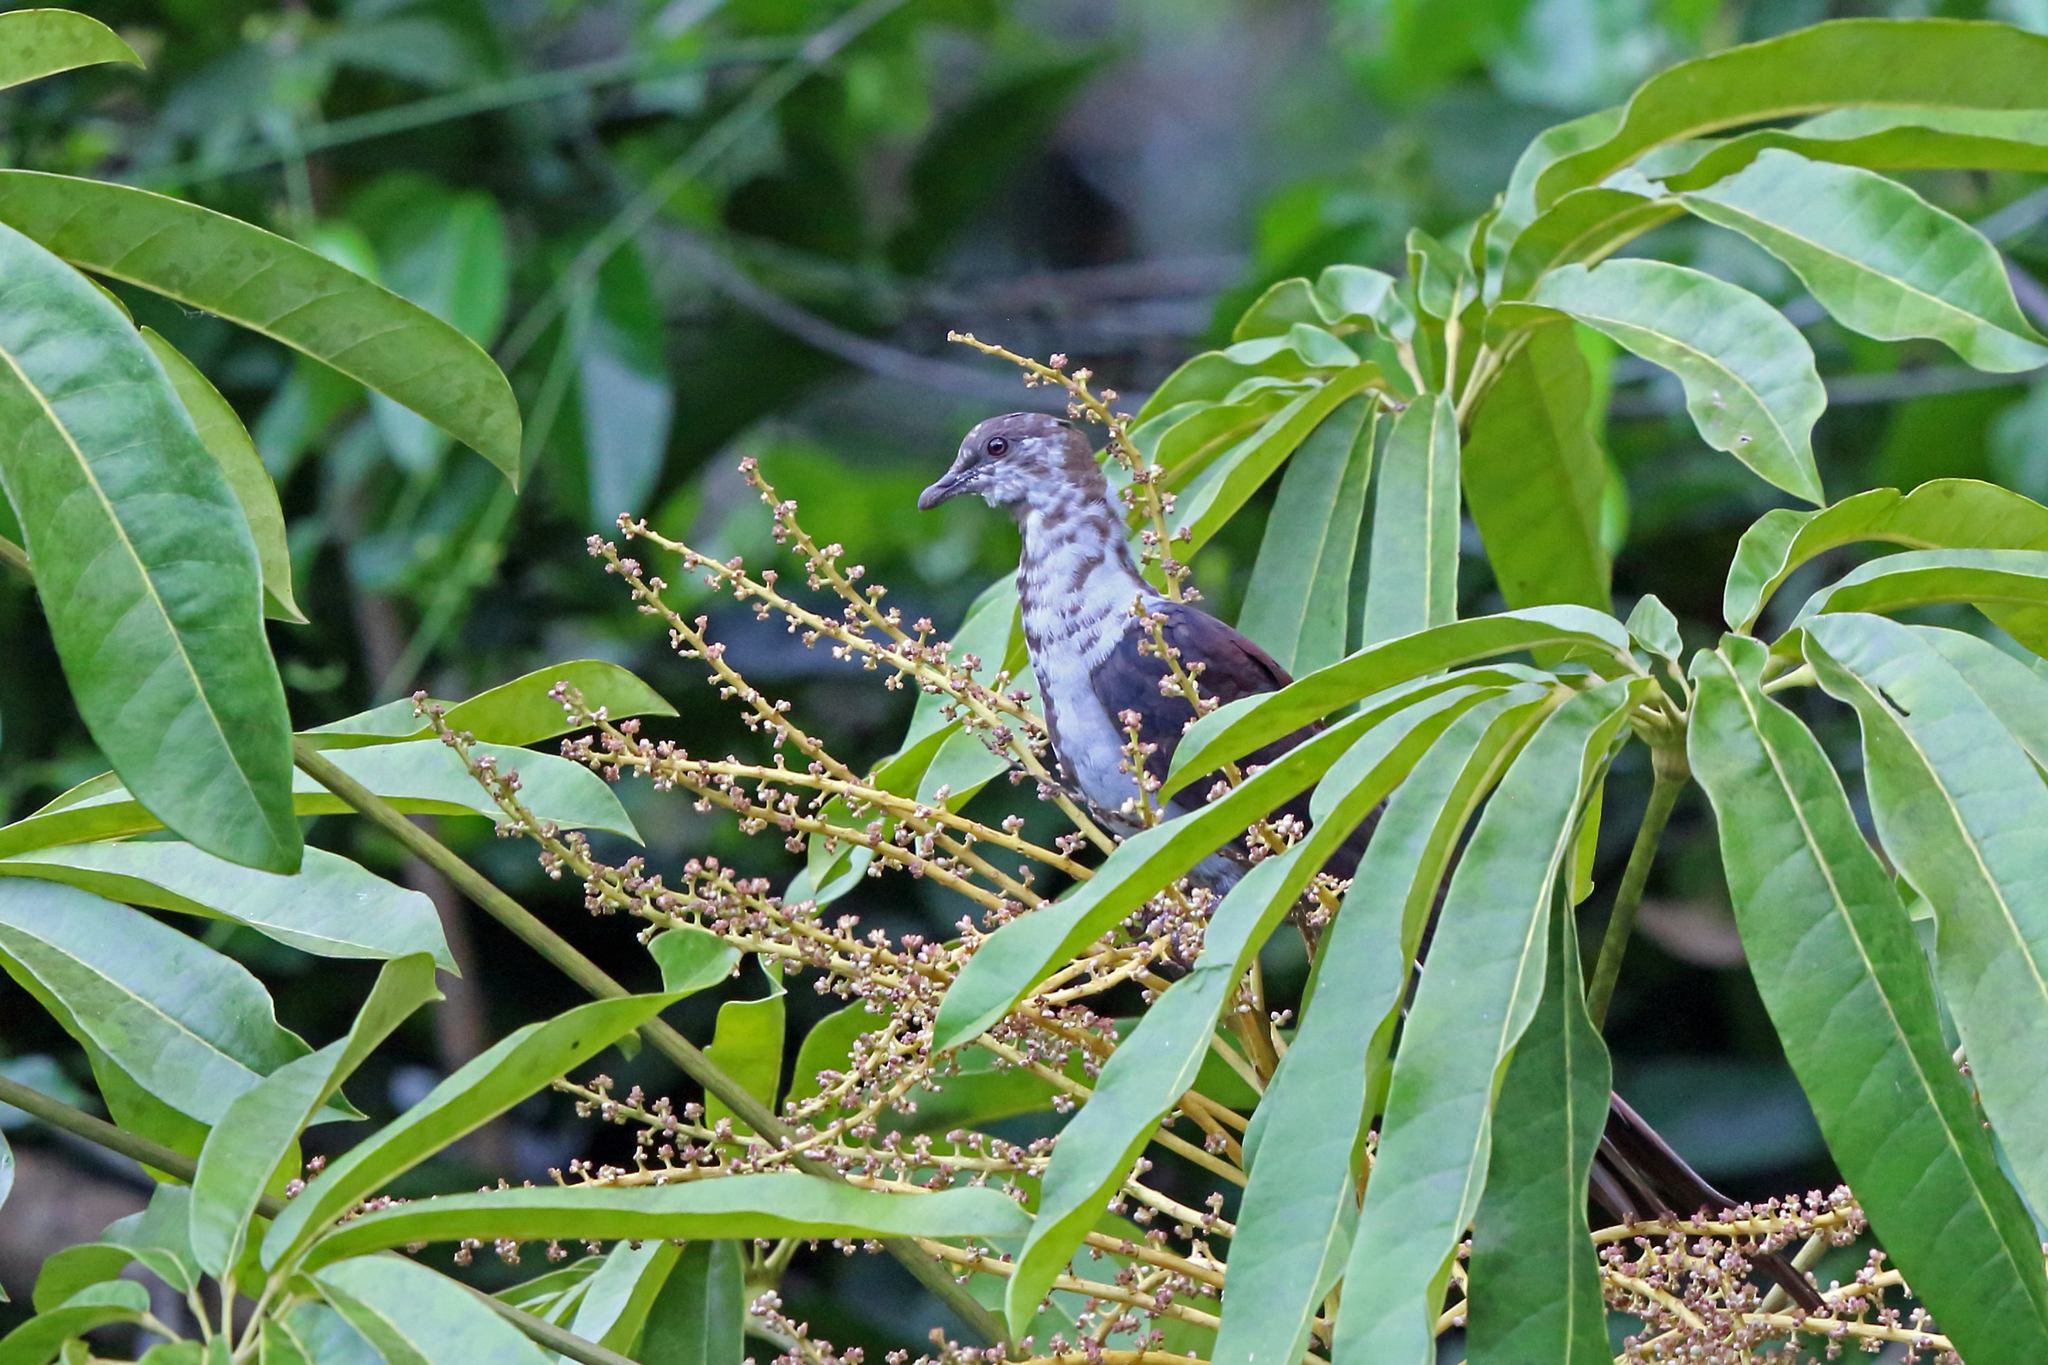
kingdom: Animalia
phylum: Chordata
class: Aves
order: Columbiformes
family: Columbidae
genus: Reinwardtoena
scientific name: Reinwardtoena reinwardti
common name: Great cuckoo-dove
